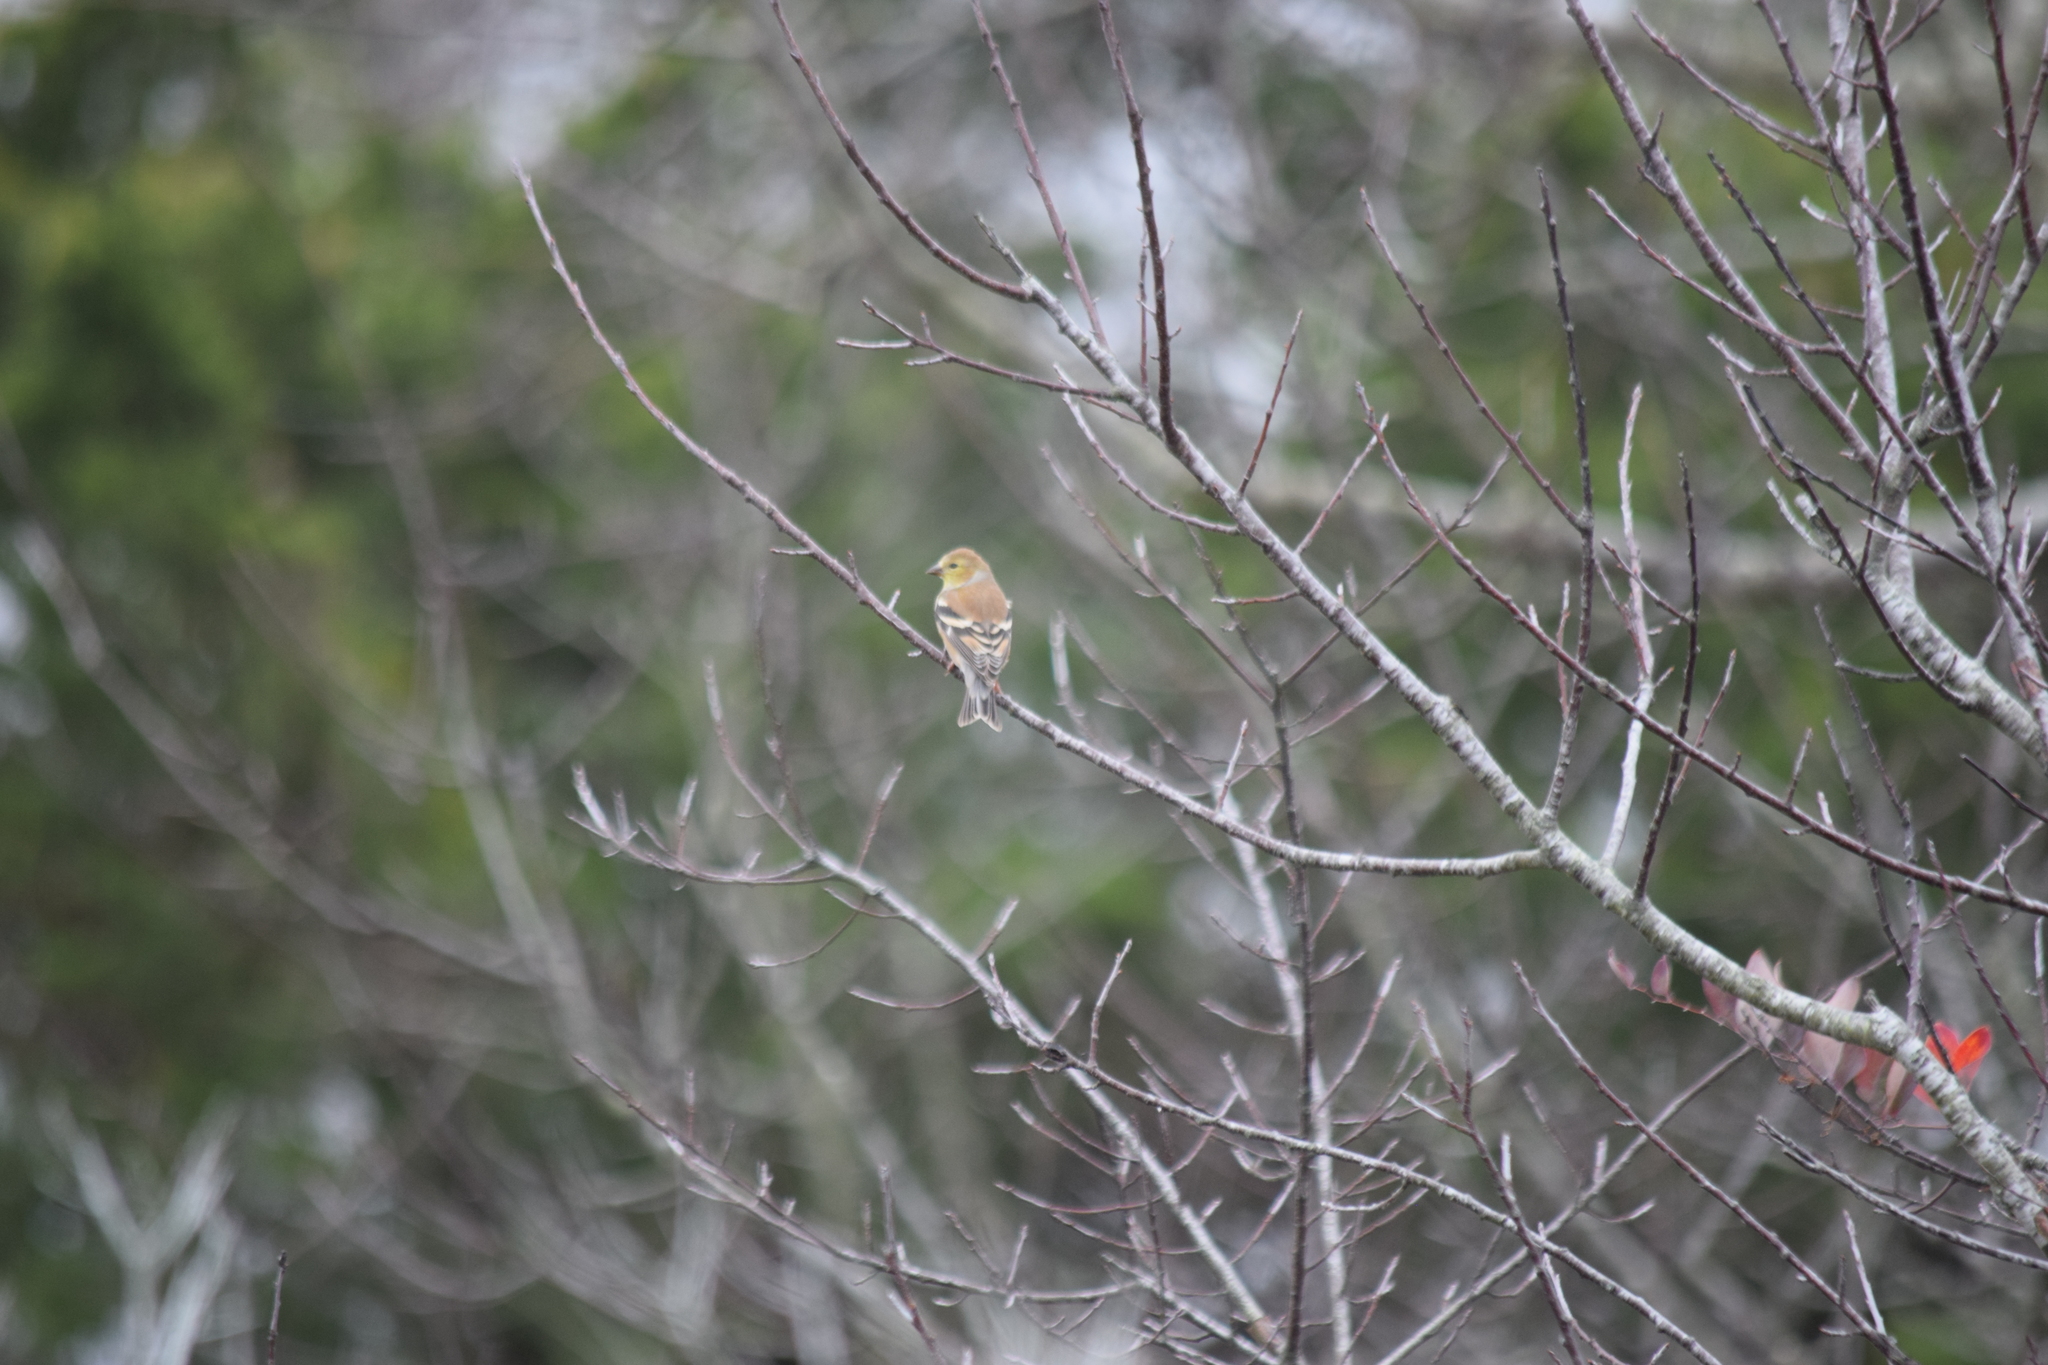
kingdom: Animalia
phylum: Chordata
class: Aves
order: Passeriformes
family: Fringillidae
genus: Spinus
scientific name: Spinus tristis
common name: American goldfinch
